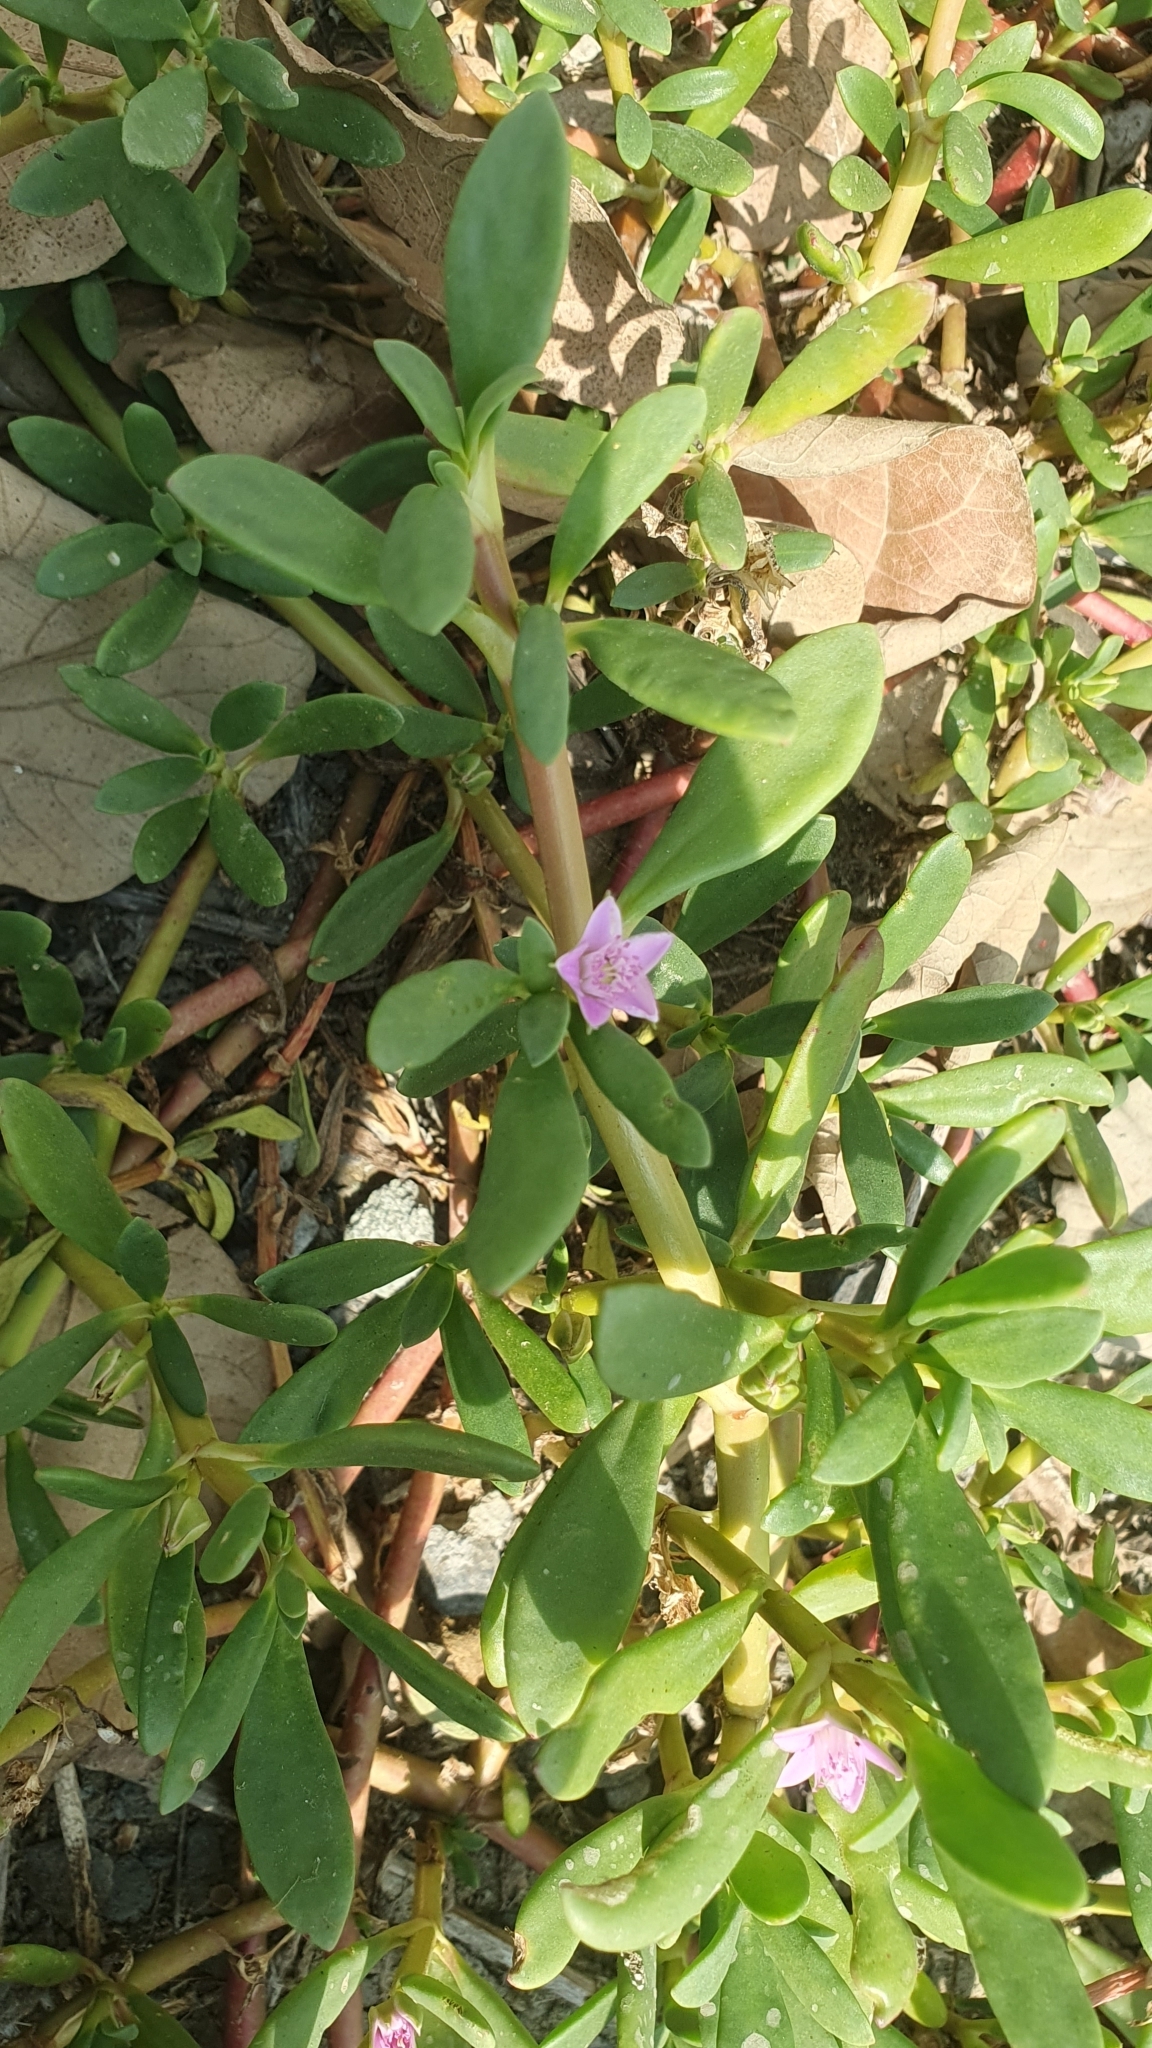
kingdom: Plantae
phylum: Tracheophyta
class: Magnoliopsida
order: Caryophyllales
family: Aizoaceae
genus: Sesuvium
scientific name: Sesuvium portulacastrum
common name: Sea-purslane
